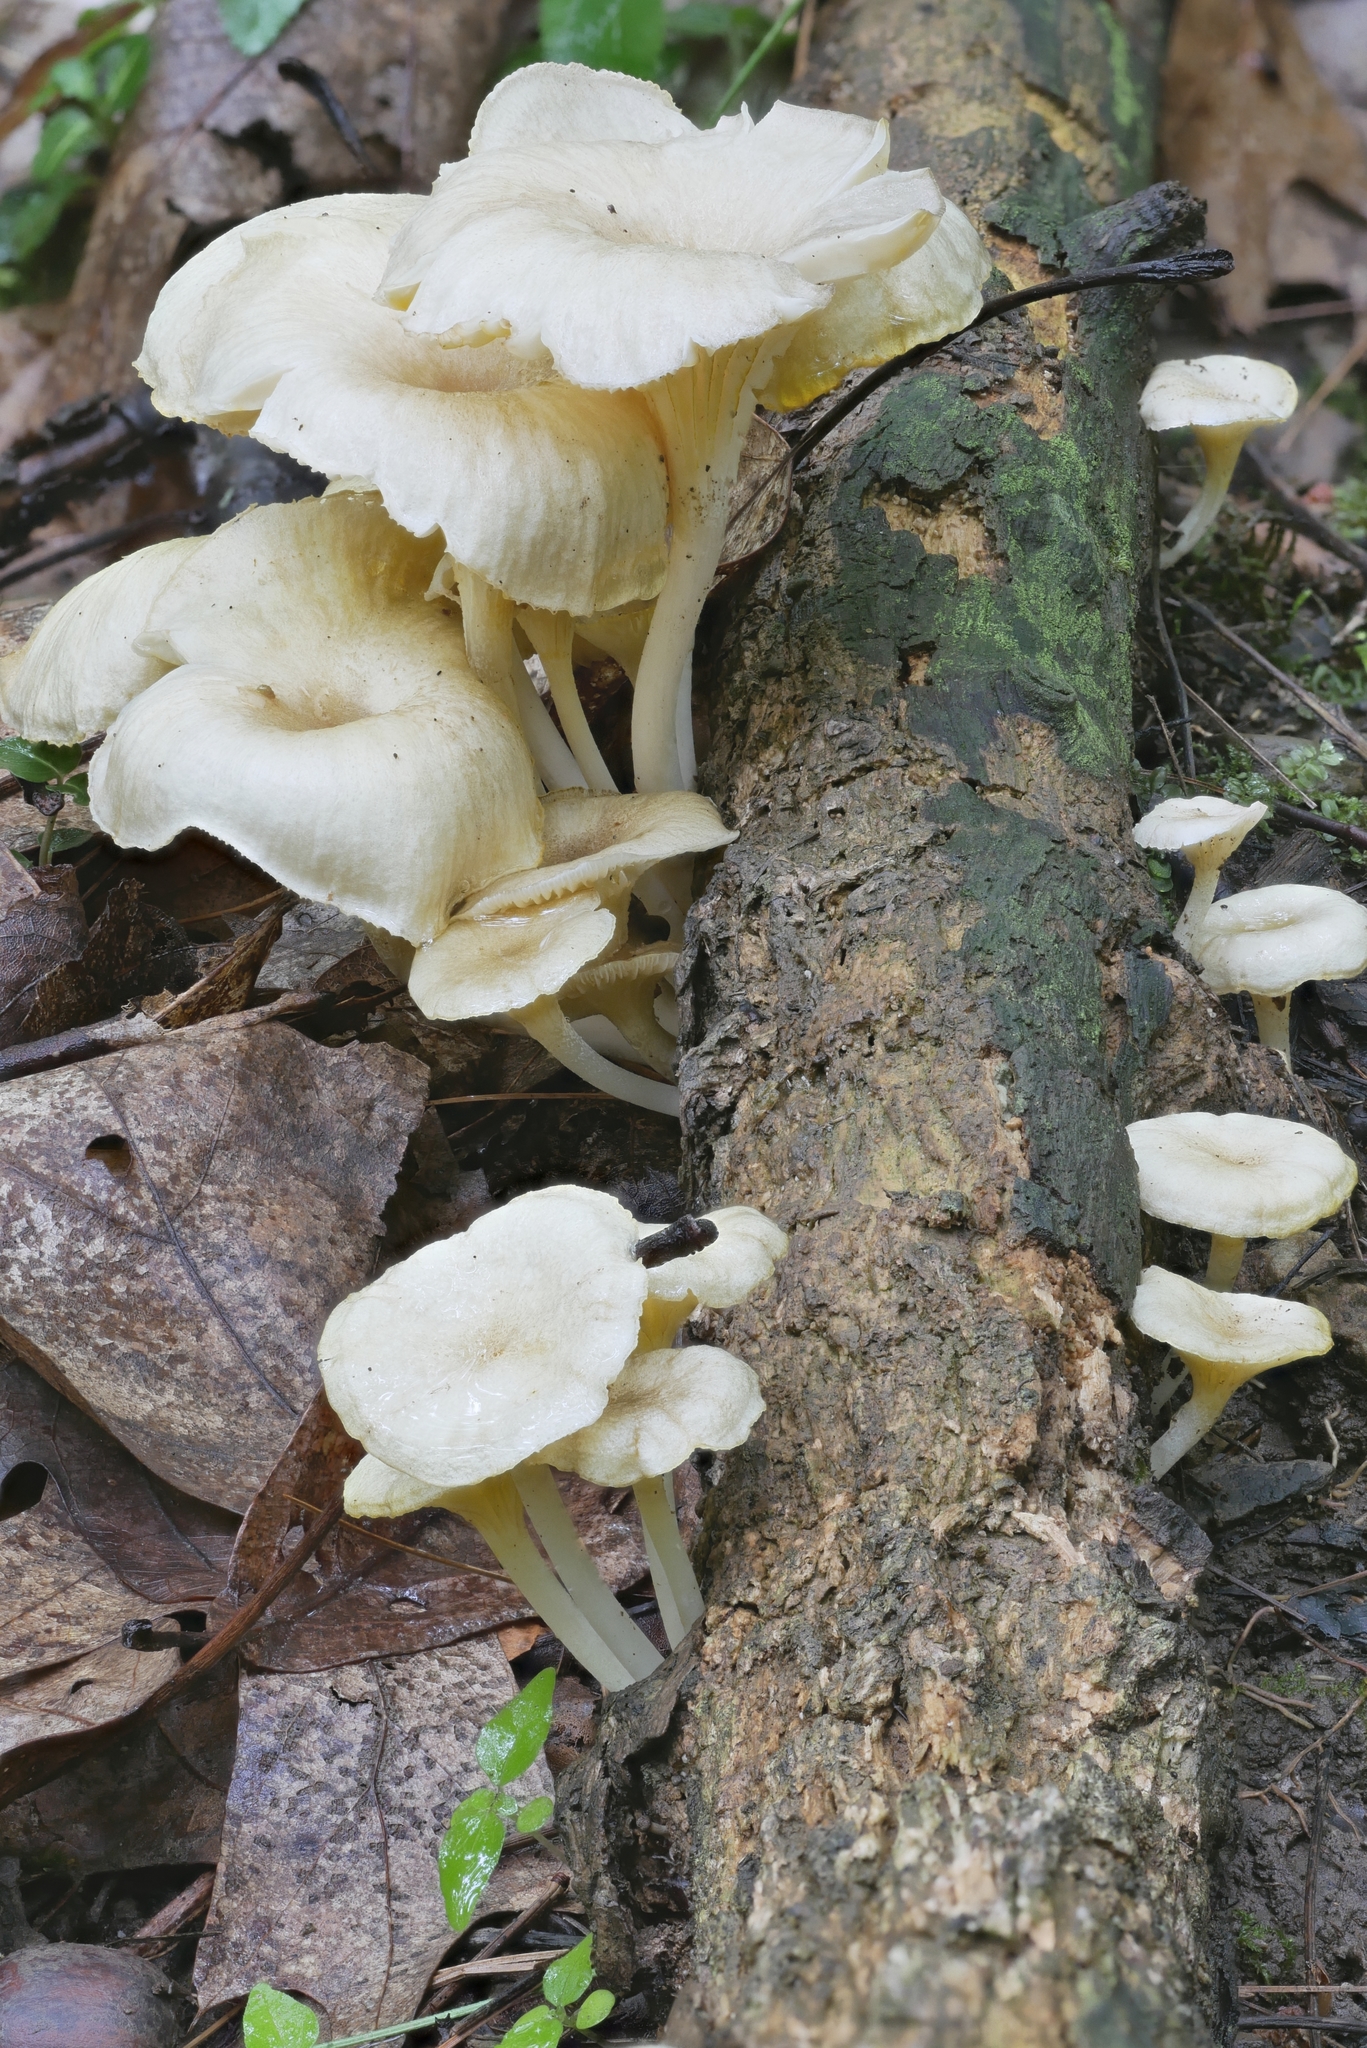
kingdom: Fungi
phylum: Basidiomycota
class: Agaricomycetes
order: Agaricales
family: Marasmiaceae
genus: Gerronema
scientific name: Gerronema strombodes
